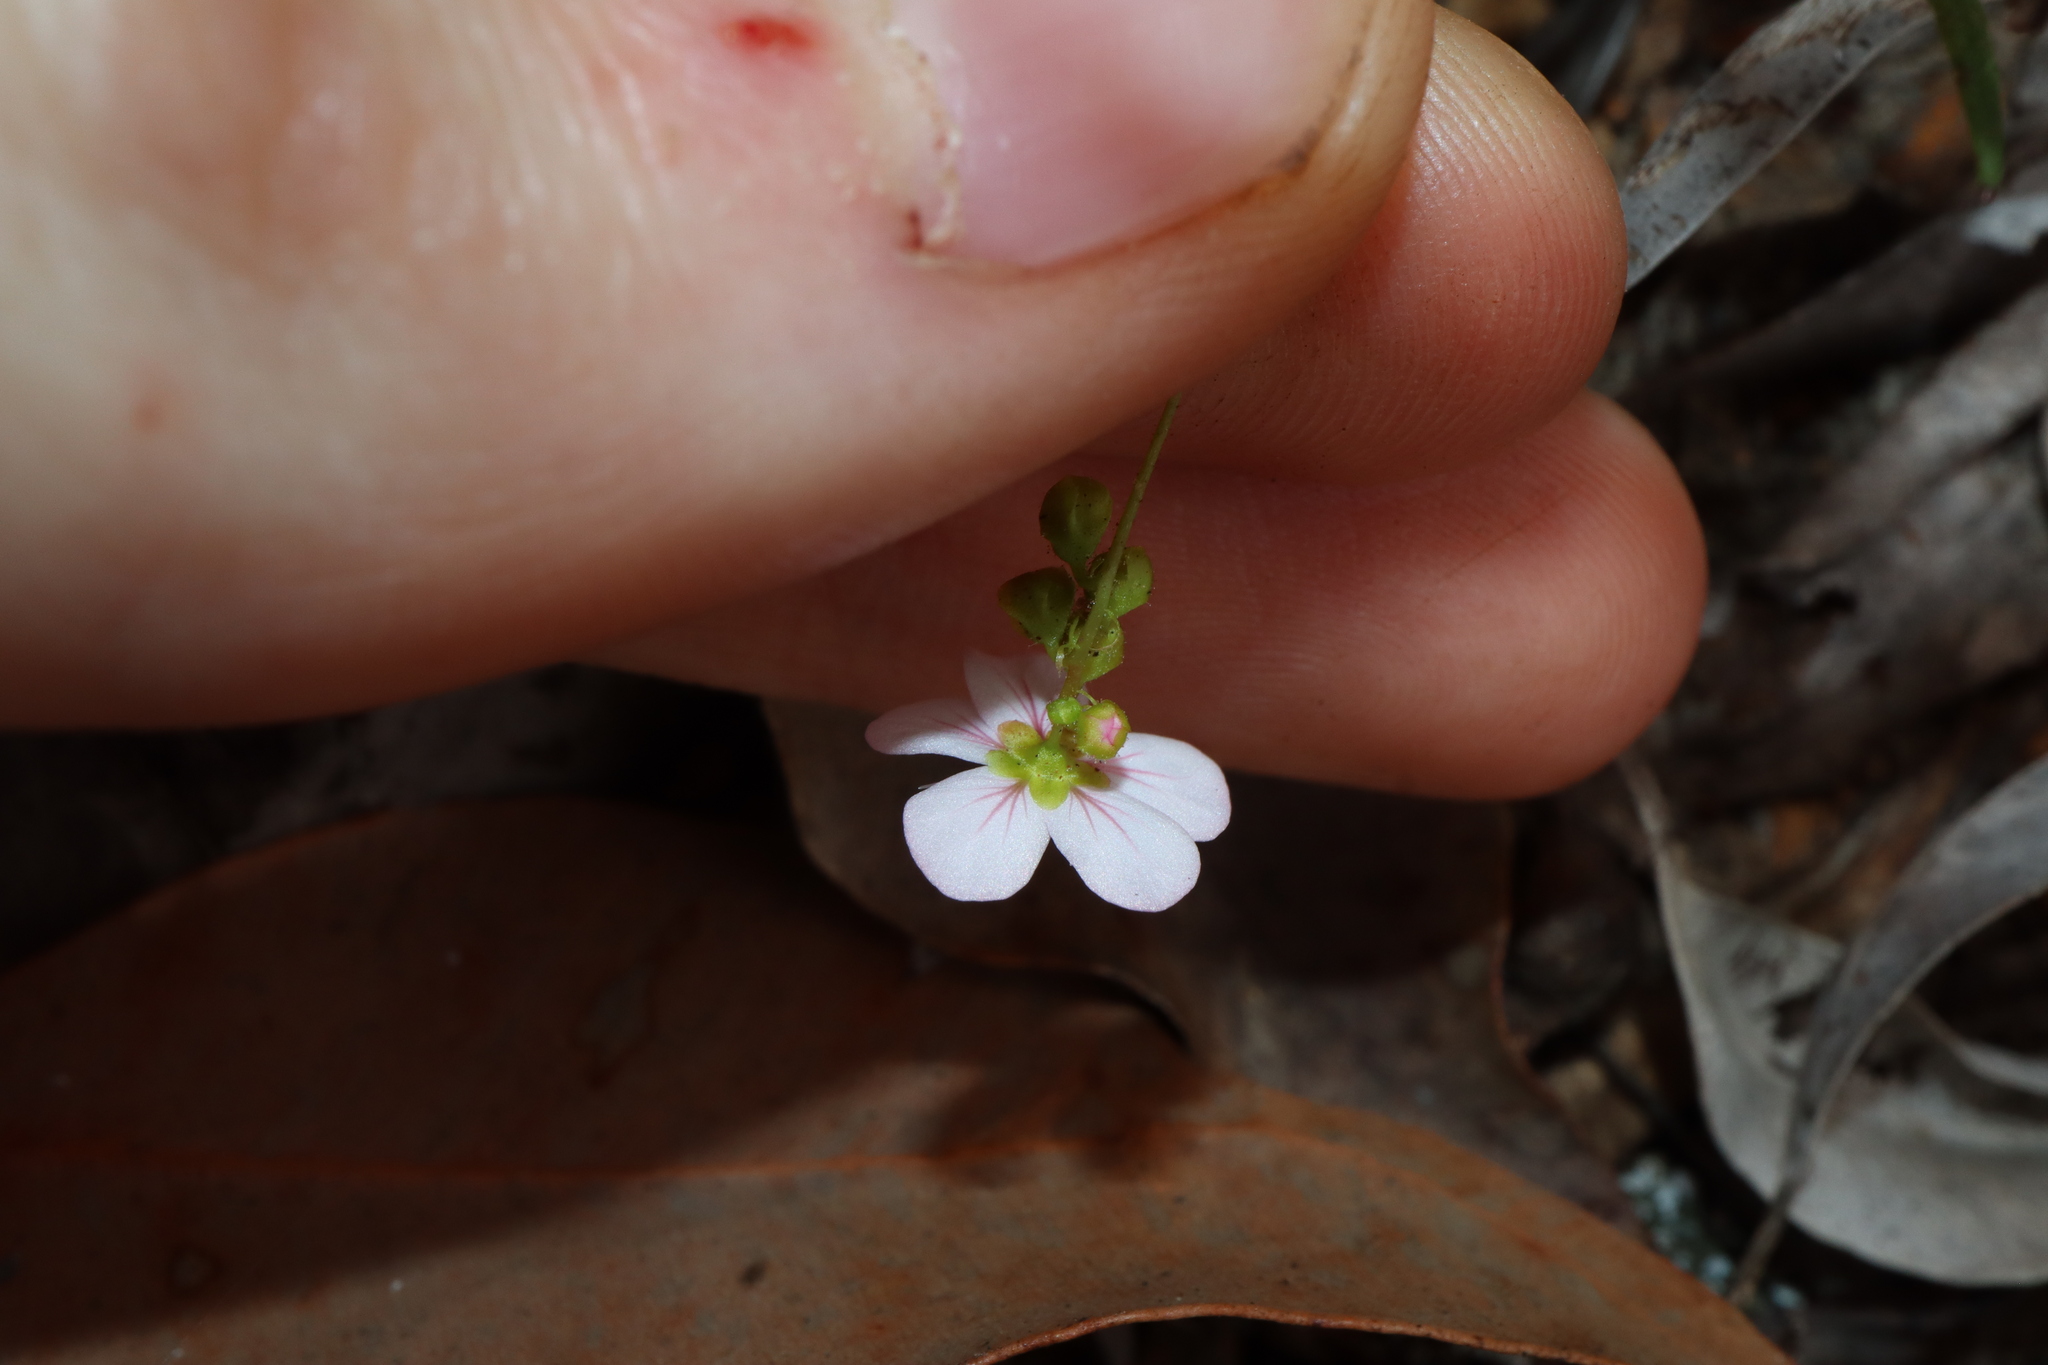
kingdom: Plantae
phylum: Tracheophyta
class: Magnoliopsida
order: Caryophyllales
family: Droseraceae
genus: Drosera
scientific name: Drosera spilos
